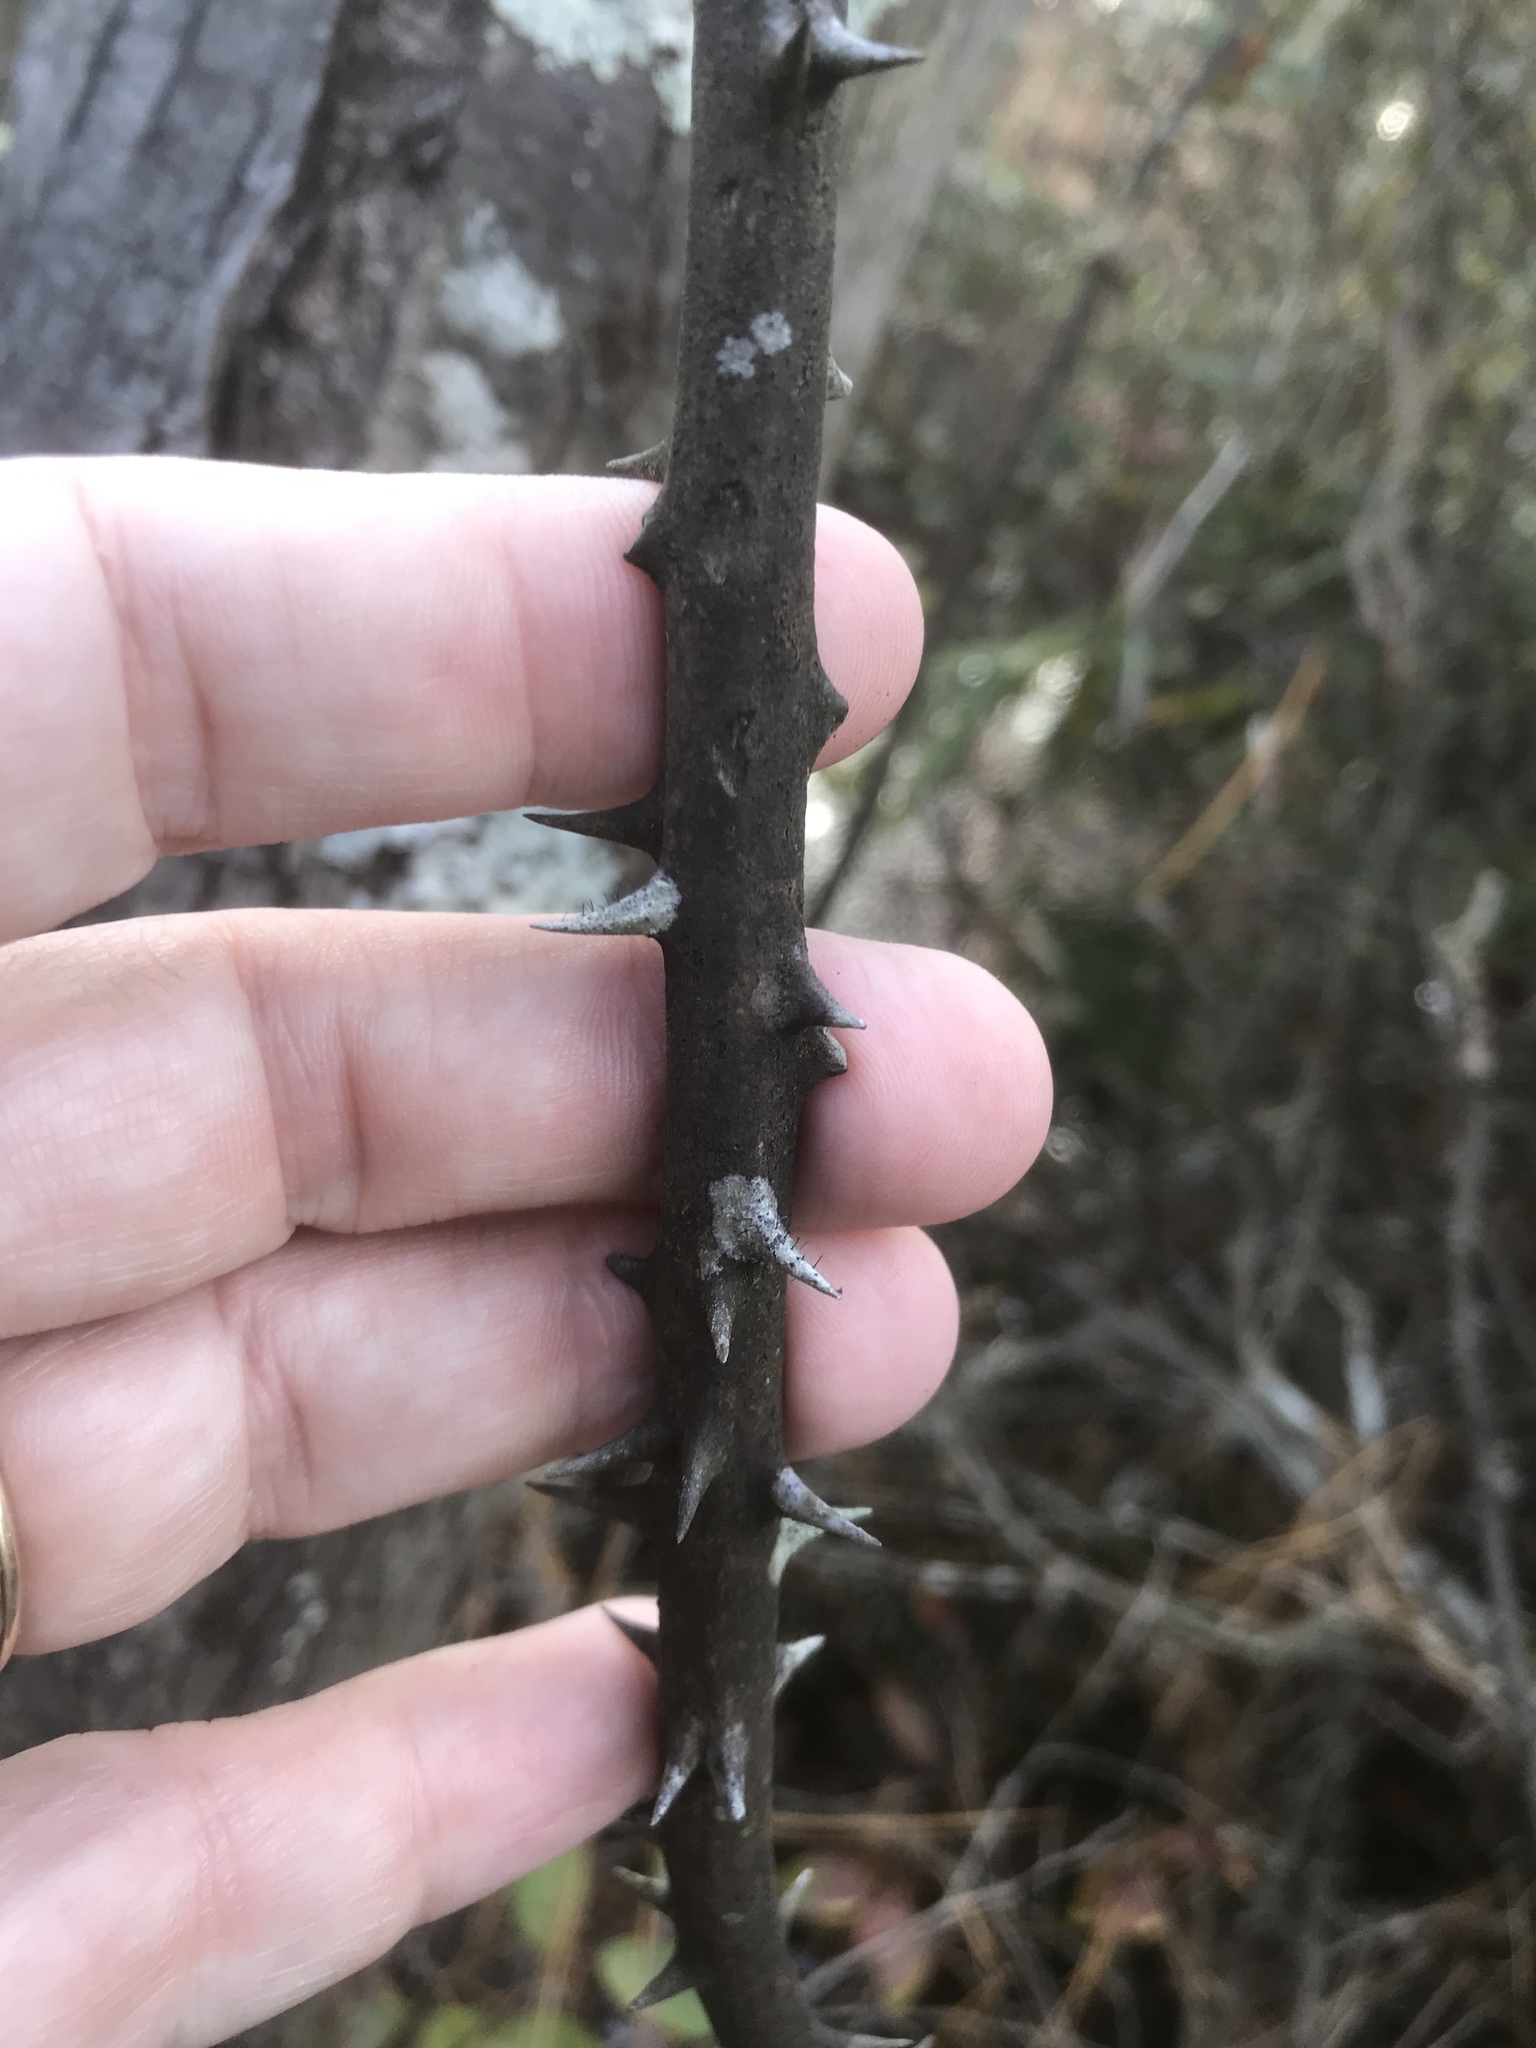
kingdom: Plantae
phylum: Tracheophyta
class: Liliopsida
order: Liliales
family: Smilacaceae
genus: Smilax
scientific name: Smilax laurifolia
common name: Bamboovine
